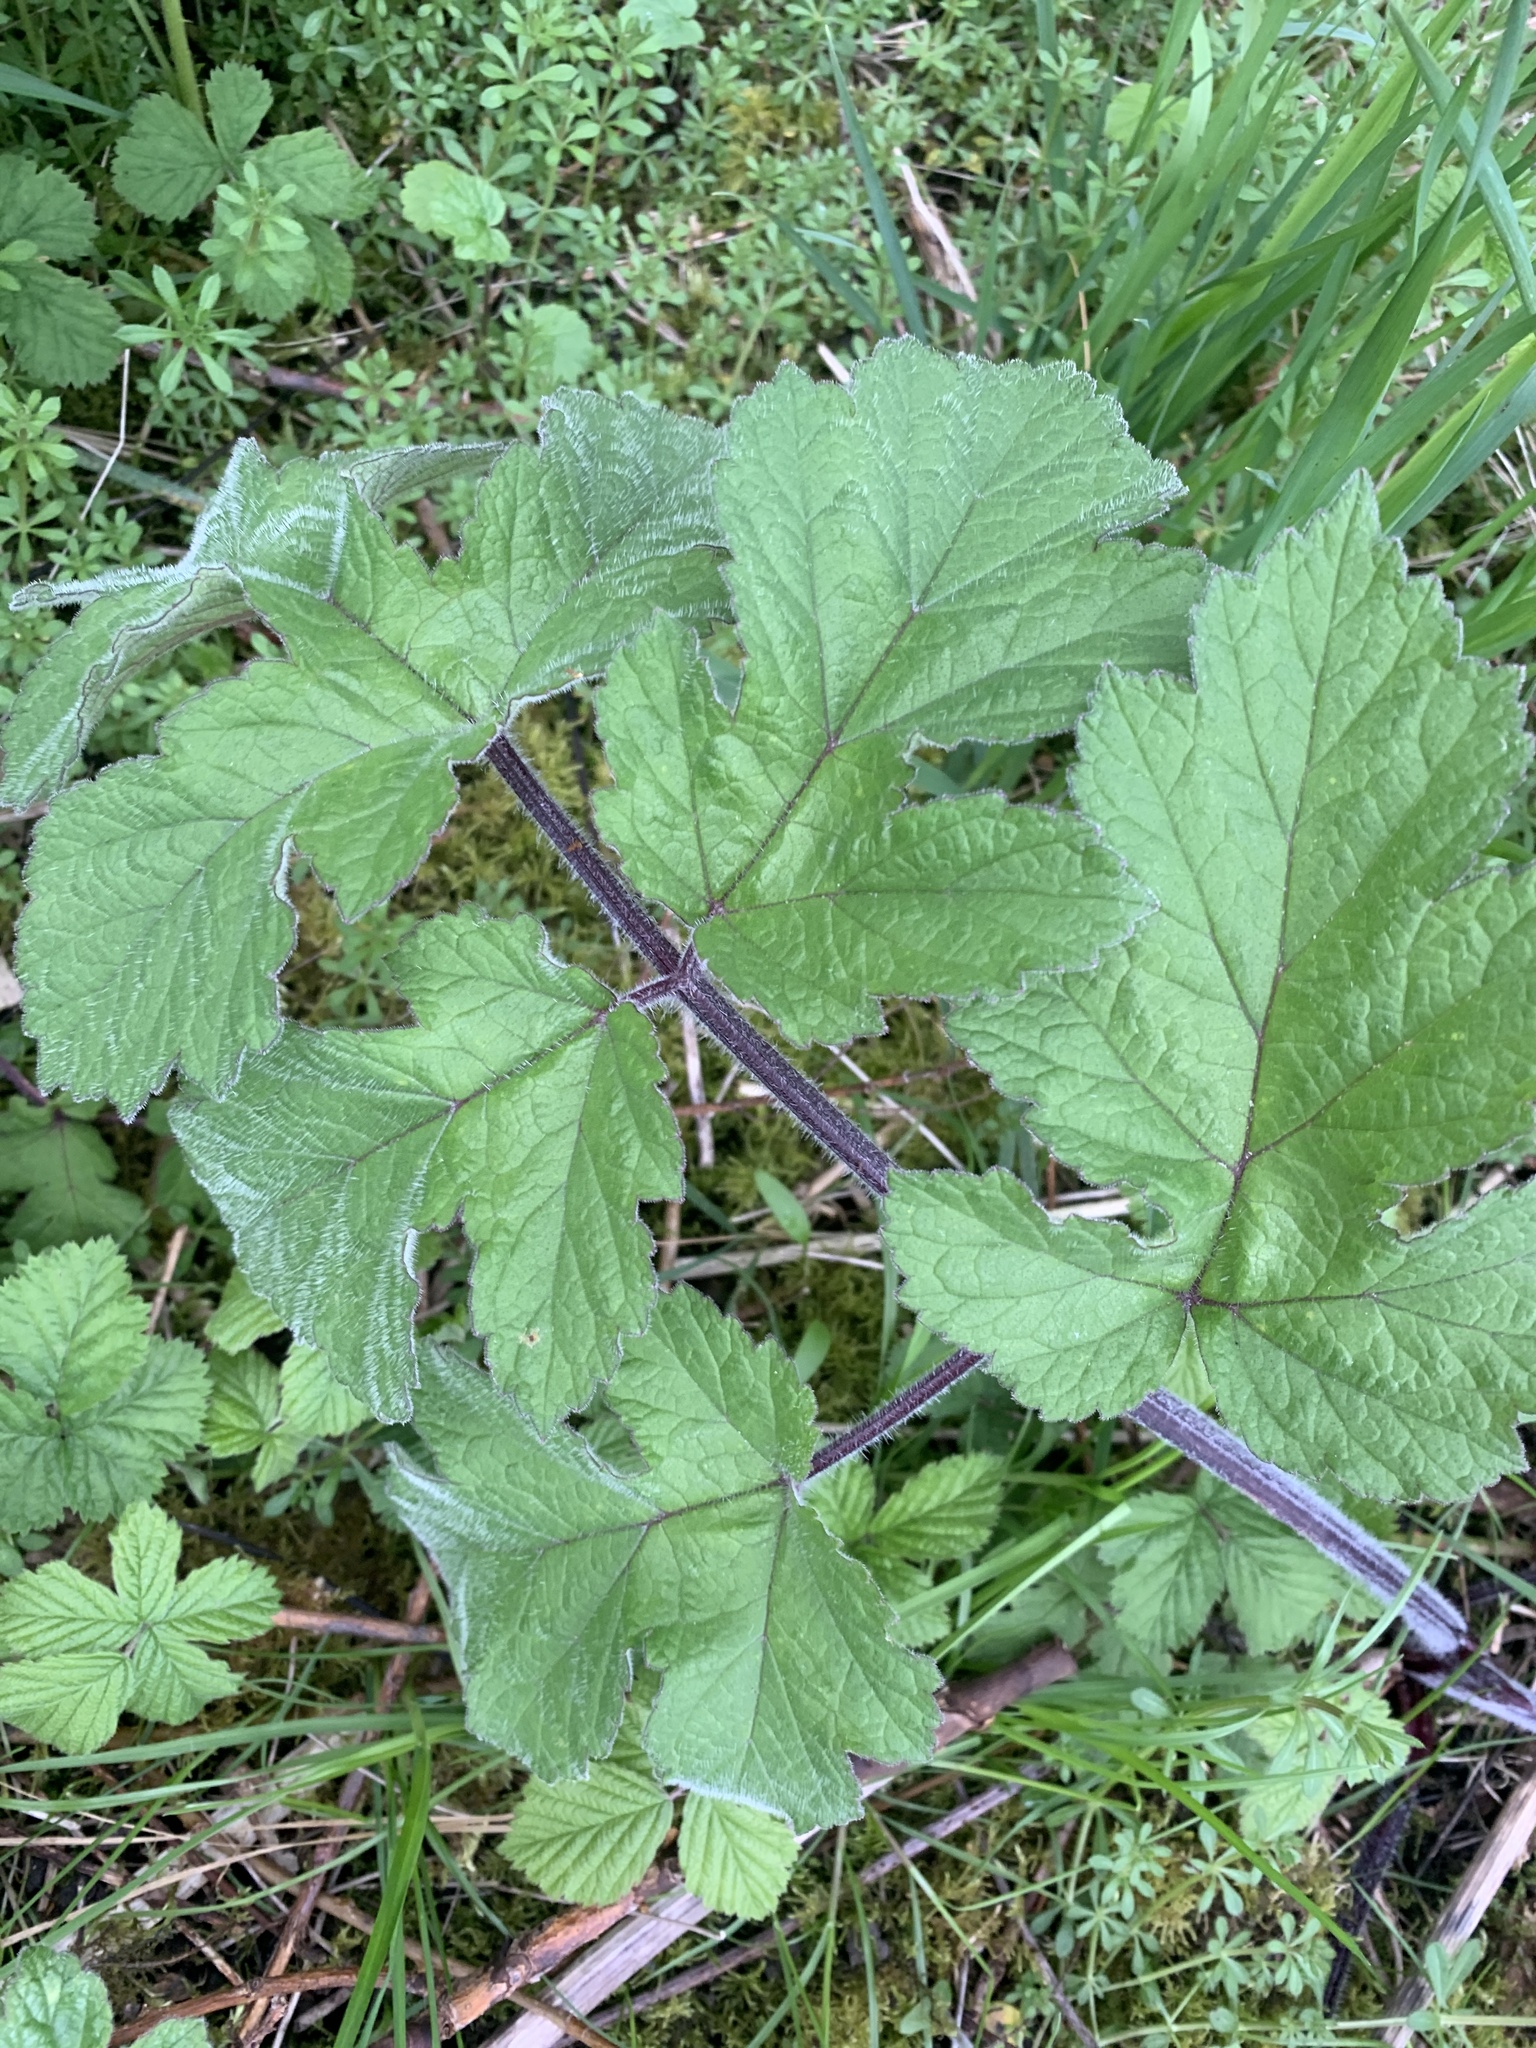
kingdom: Plantae
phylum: Tracheophyta
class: Magnoliopsida
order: Apiales
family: Apiaceae
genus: Heracleum
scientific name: Heracleum sphondylium
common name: Hogweed
